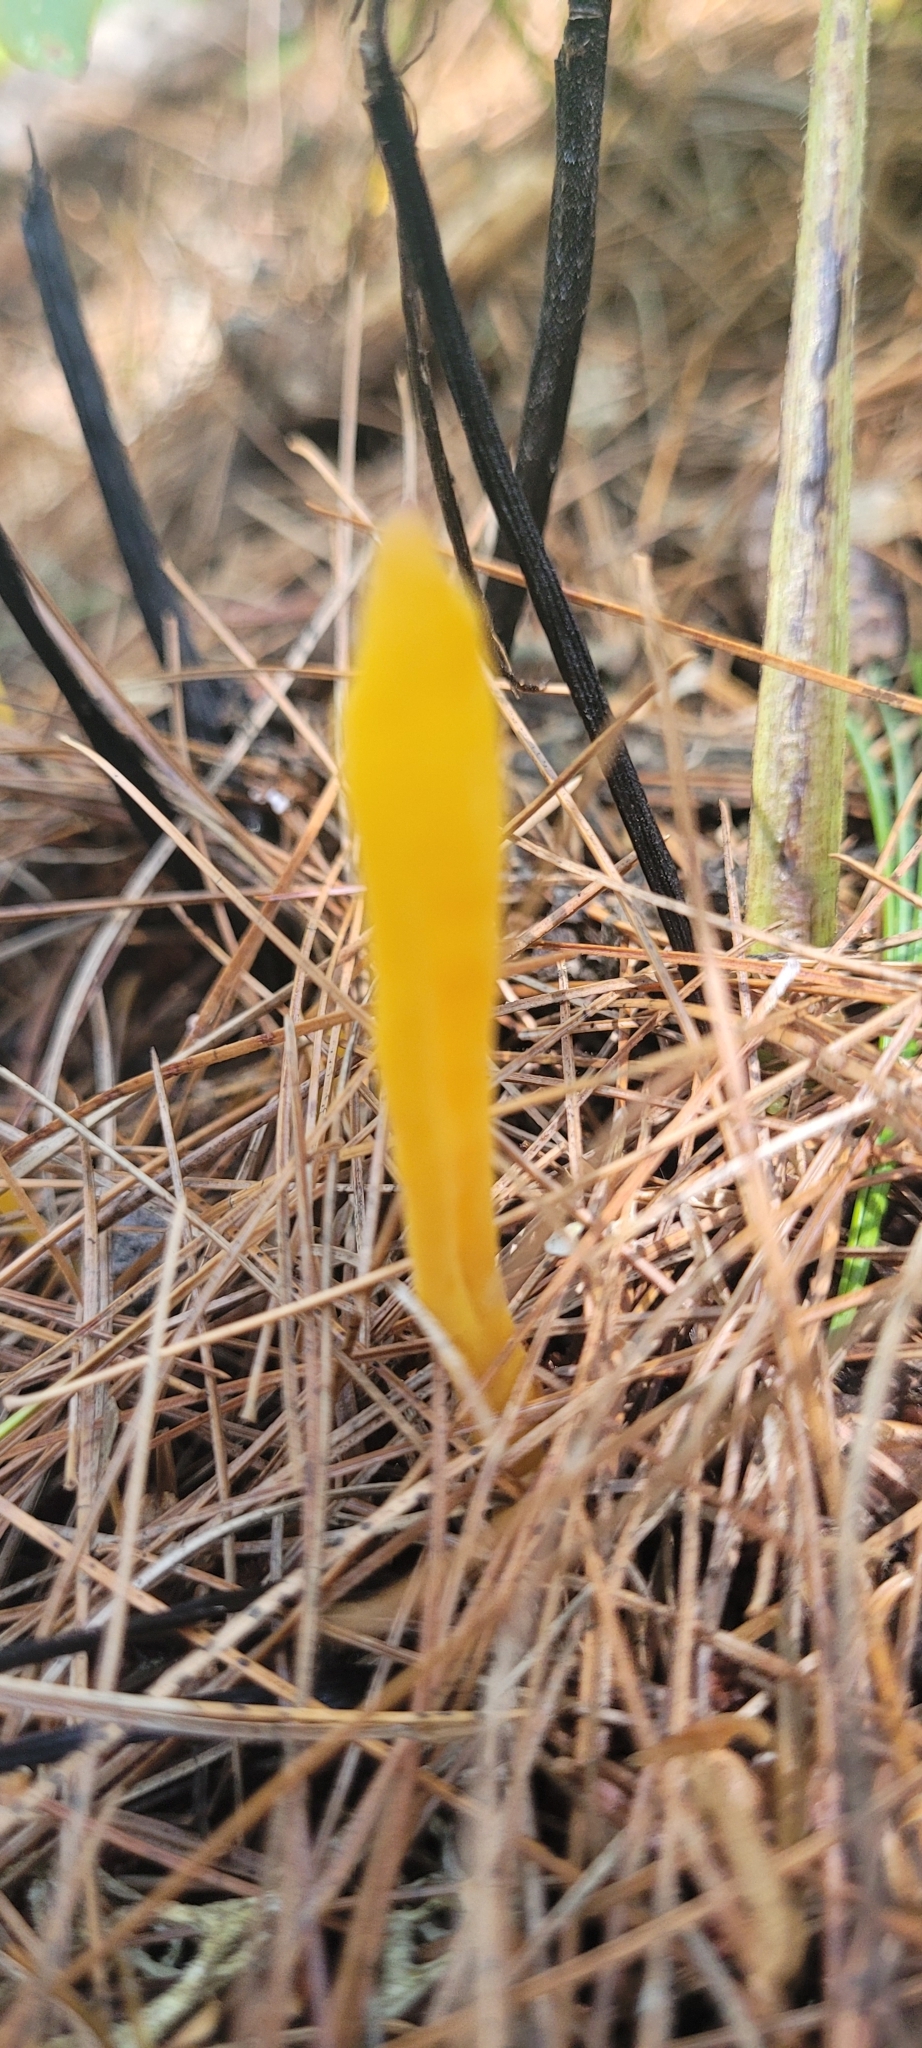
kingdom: Fungi
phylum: Basidiomycota
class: Agaricomycetes
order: Agaricales
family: Clavariaceae
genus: Clavulinopsis
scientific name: Clavulinopsis laeticolor
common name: Handsome club
